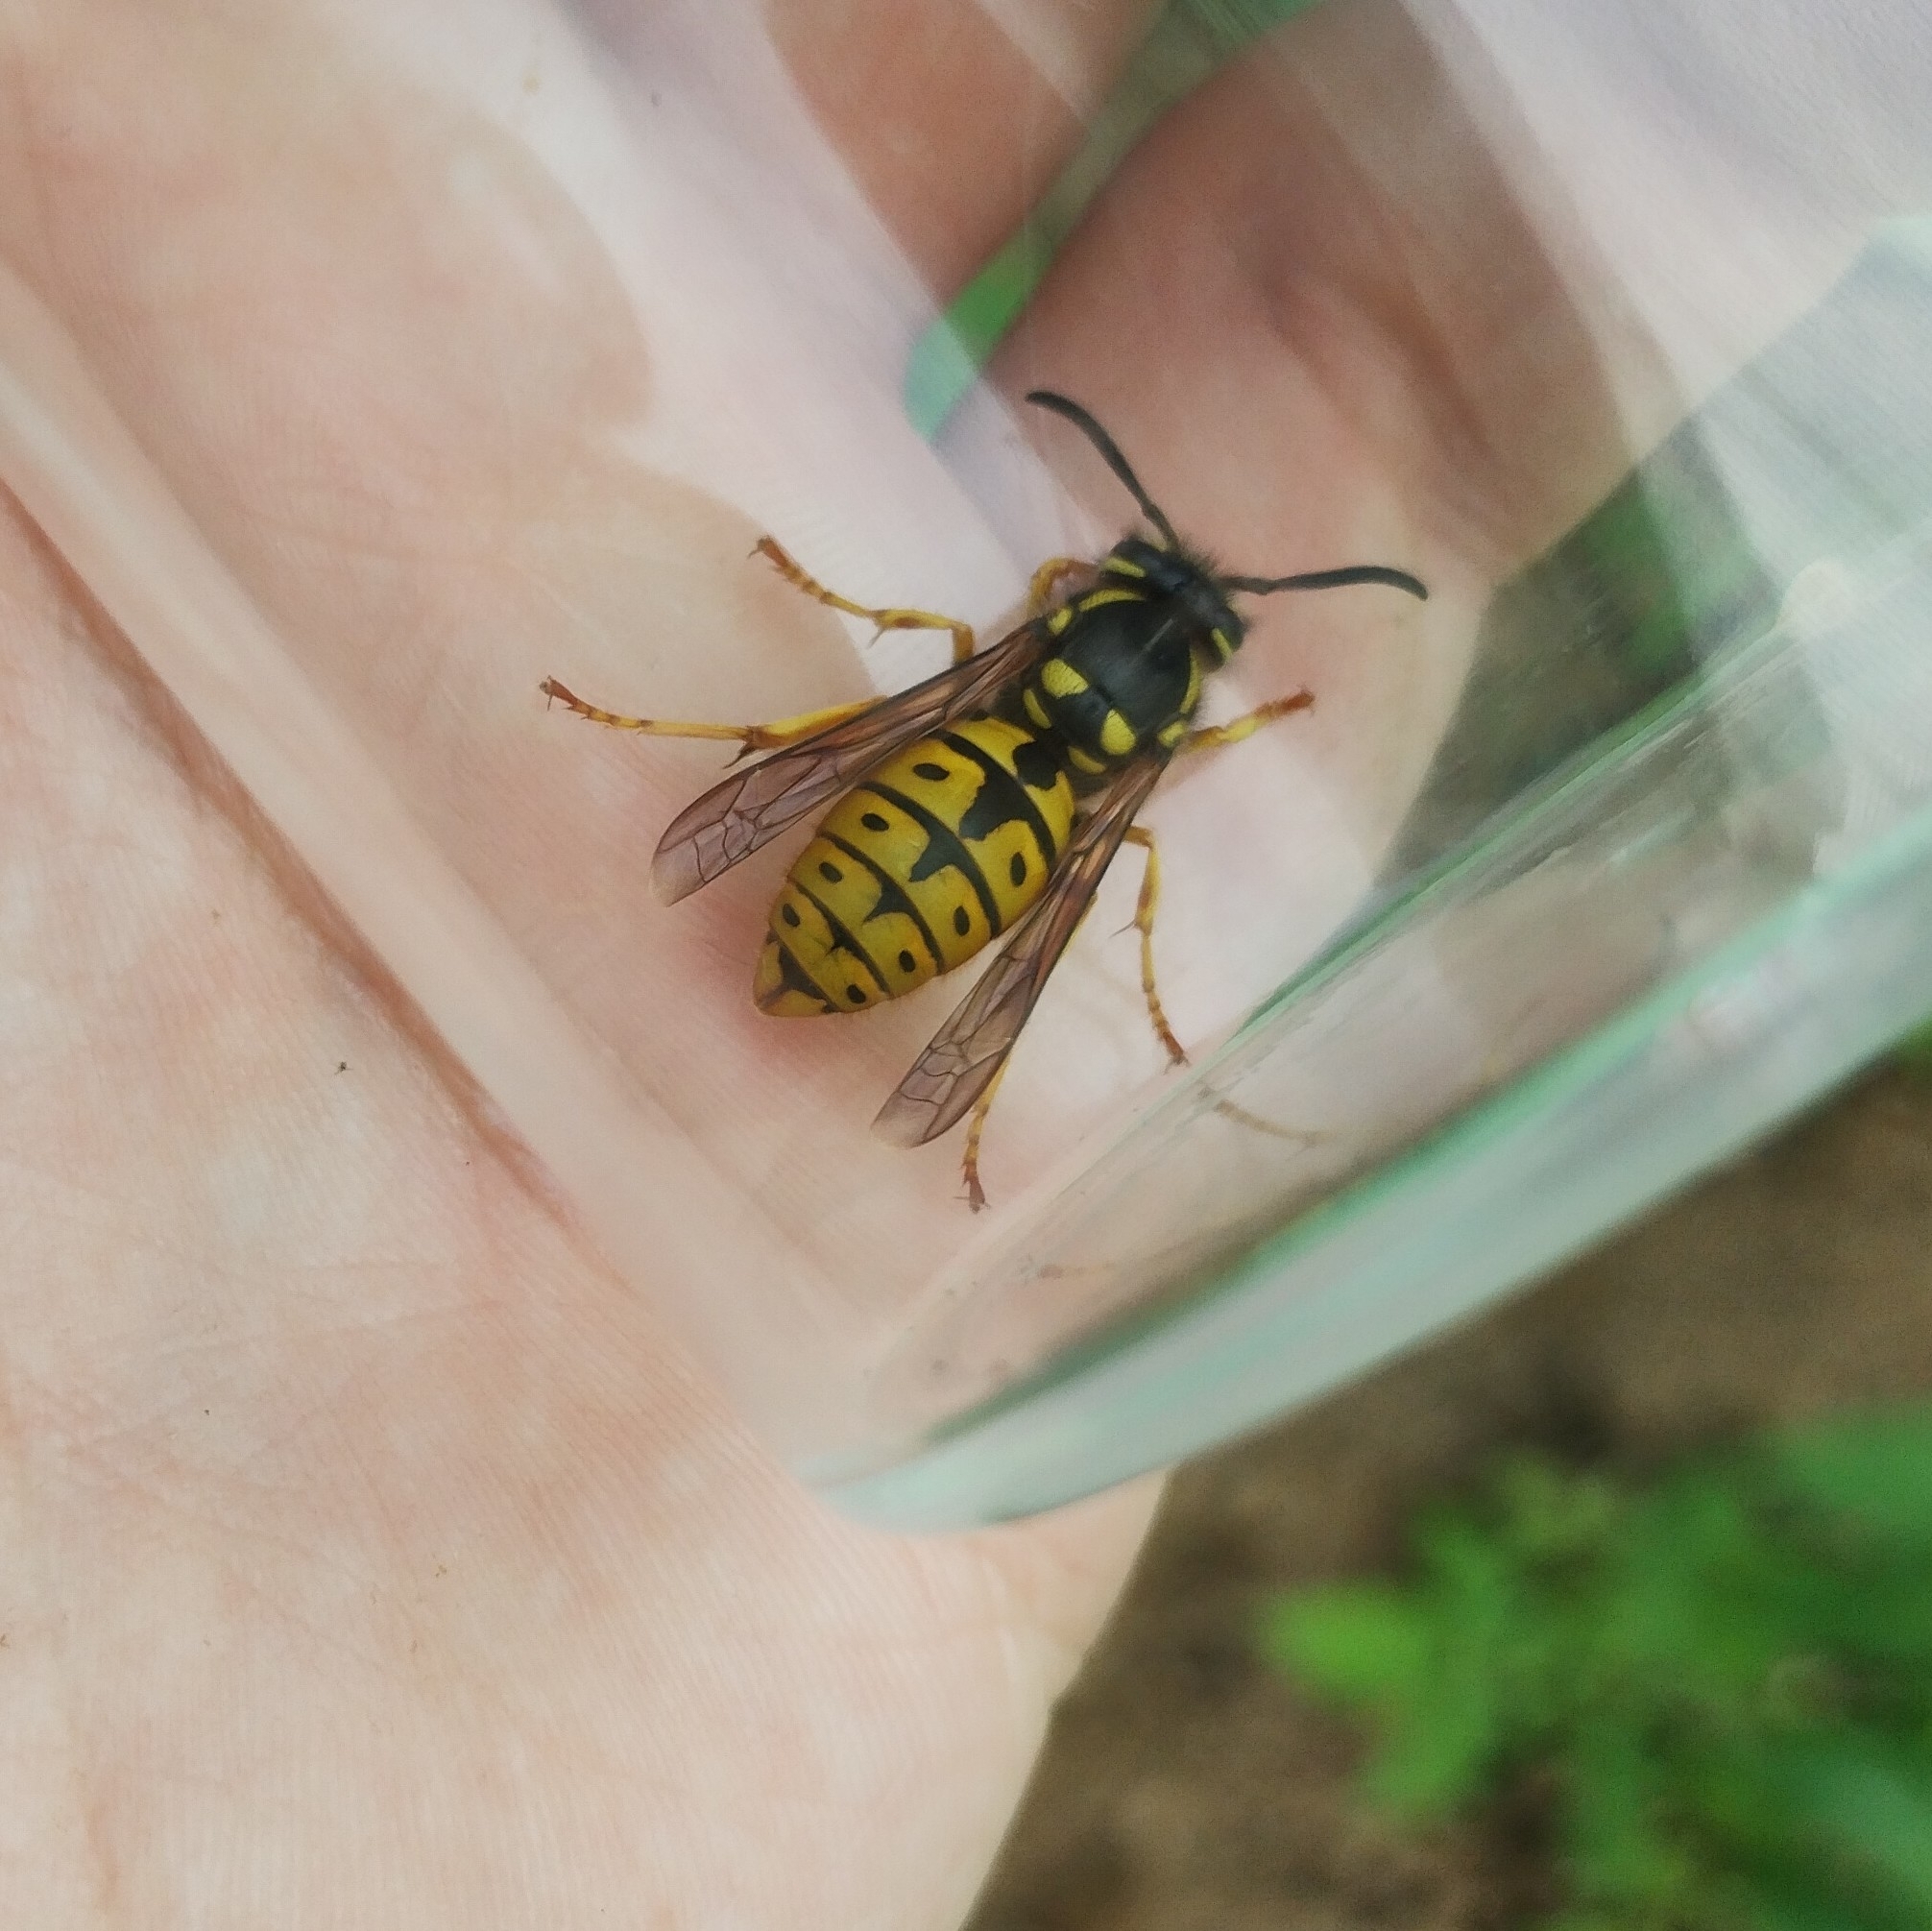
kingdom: Animalia
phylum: Arthropoda
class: Insecta
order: Hymenoptera
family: Vespidae
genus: Vespula
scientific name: Vespula germanica
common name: German wasp
